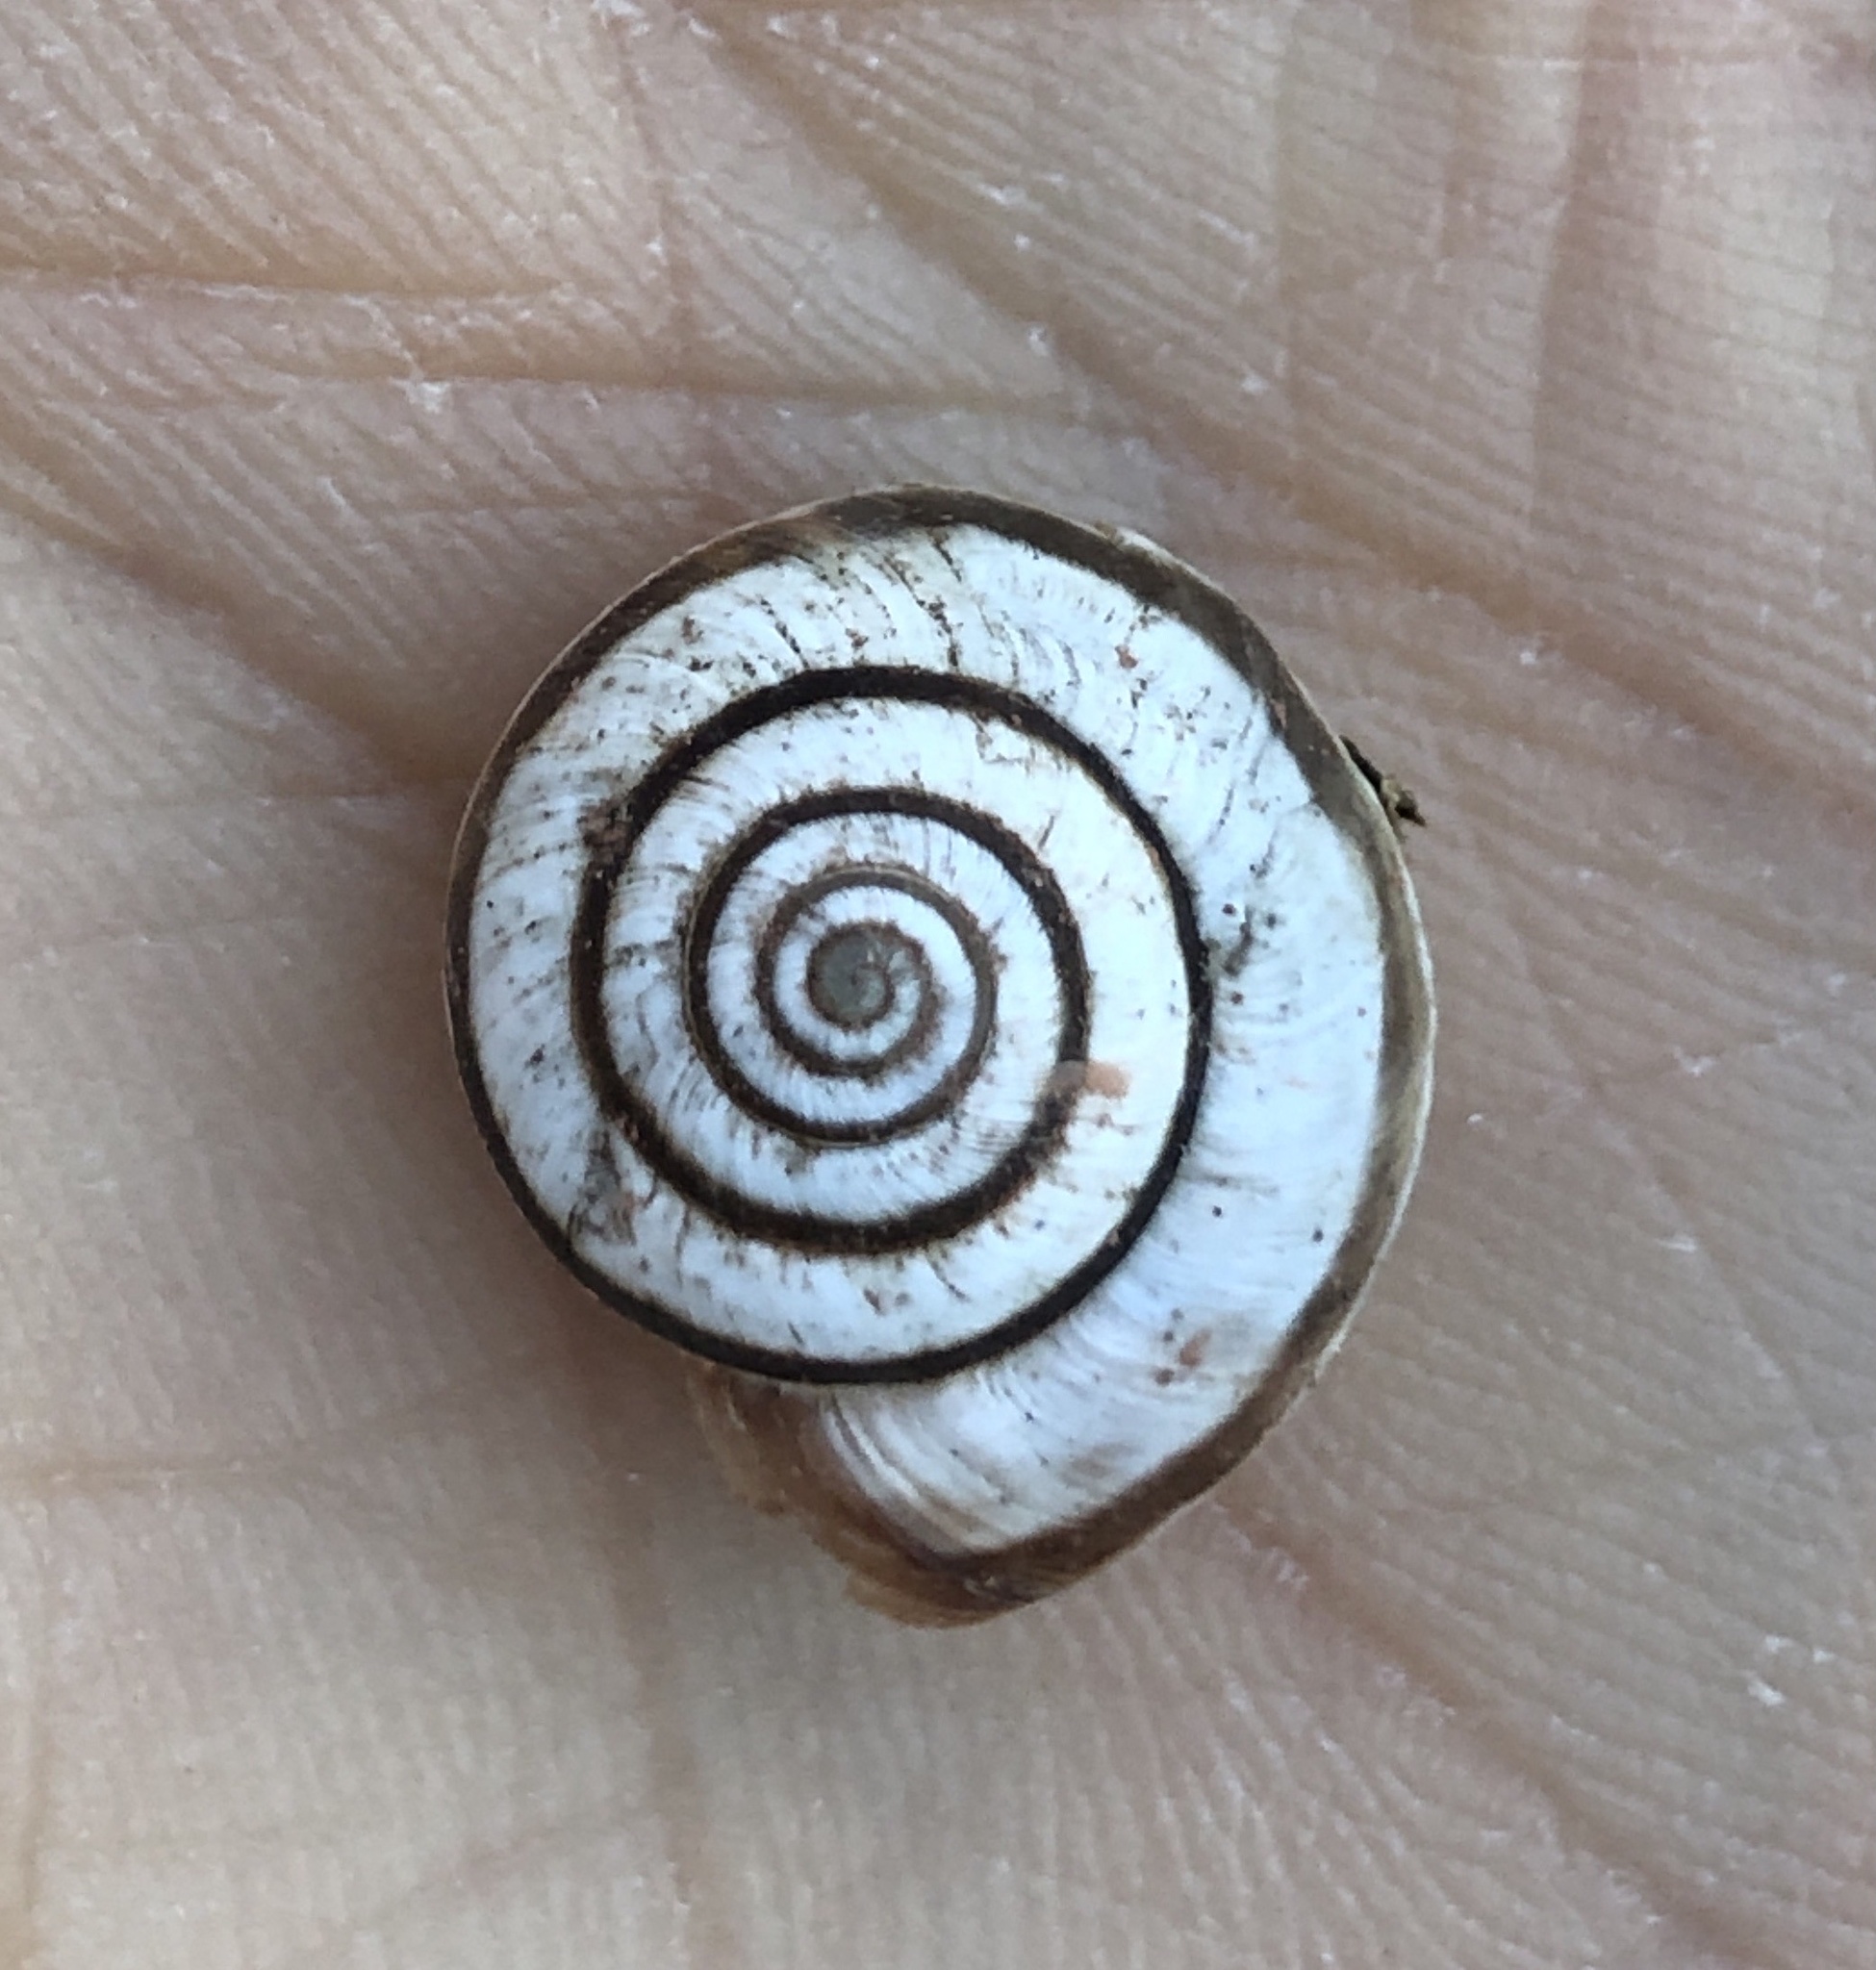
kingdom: Animalia
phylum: Mollusca
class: Gastropoda
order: Stylommatophora
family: Geomitridae
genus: Cernuella
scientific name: Cernuella virgata
